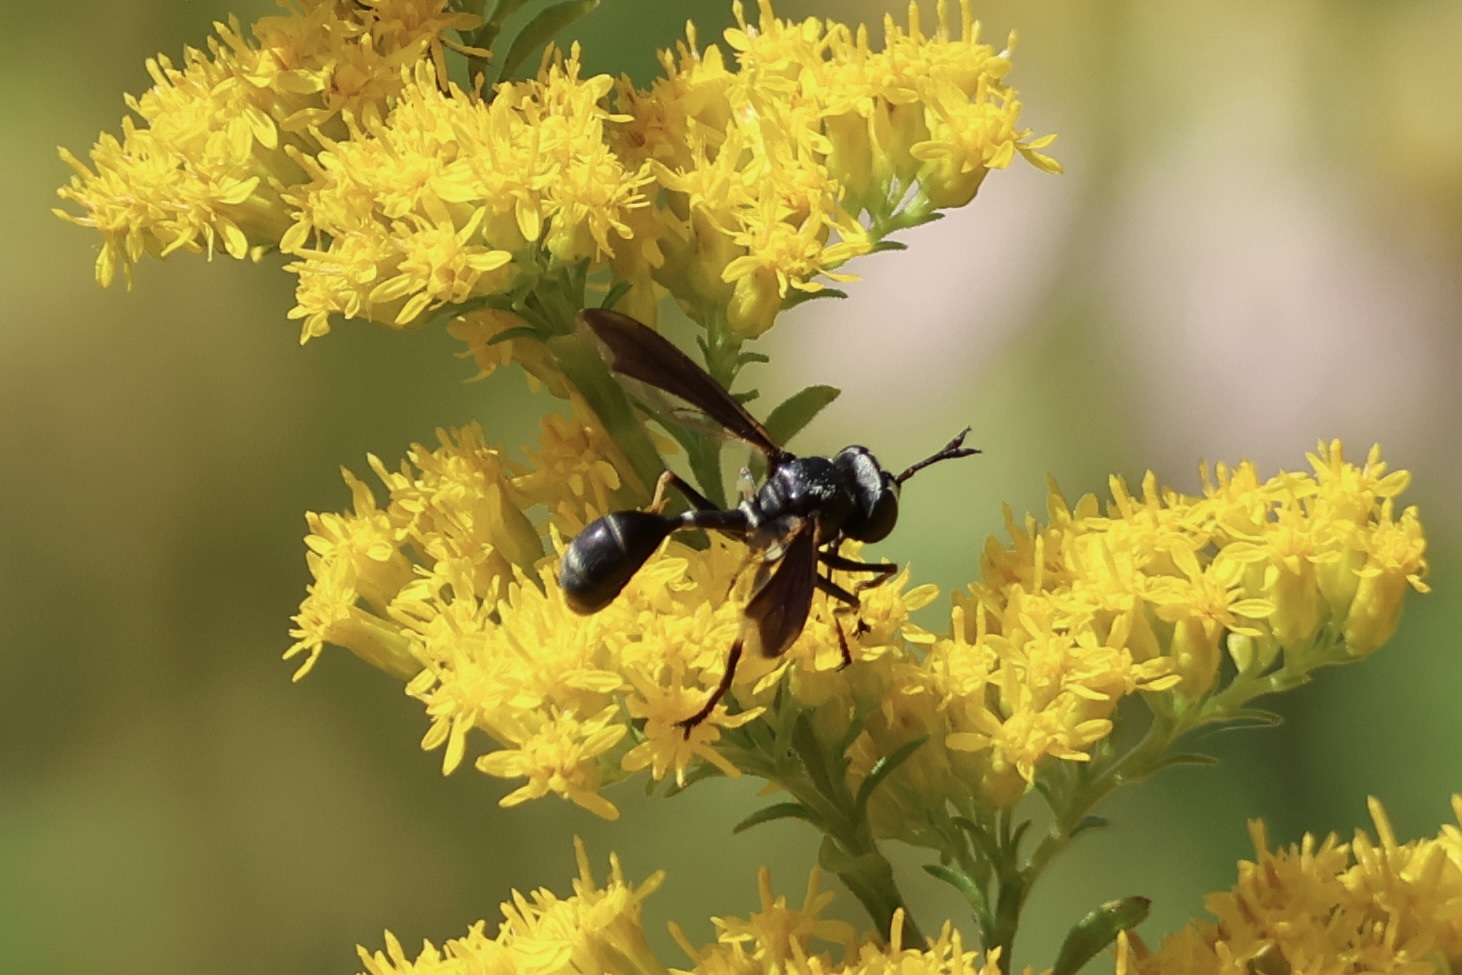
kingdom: Animalia
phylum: Arthropoda
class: Insecta
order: Diptera
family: Conopidae
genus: Physocephala
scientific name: Physocephala tibialis
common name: Common eastern physocephala
